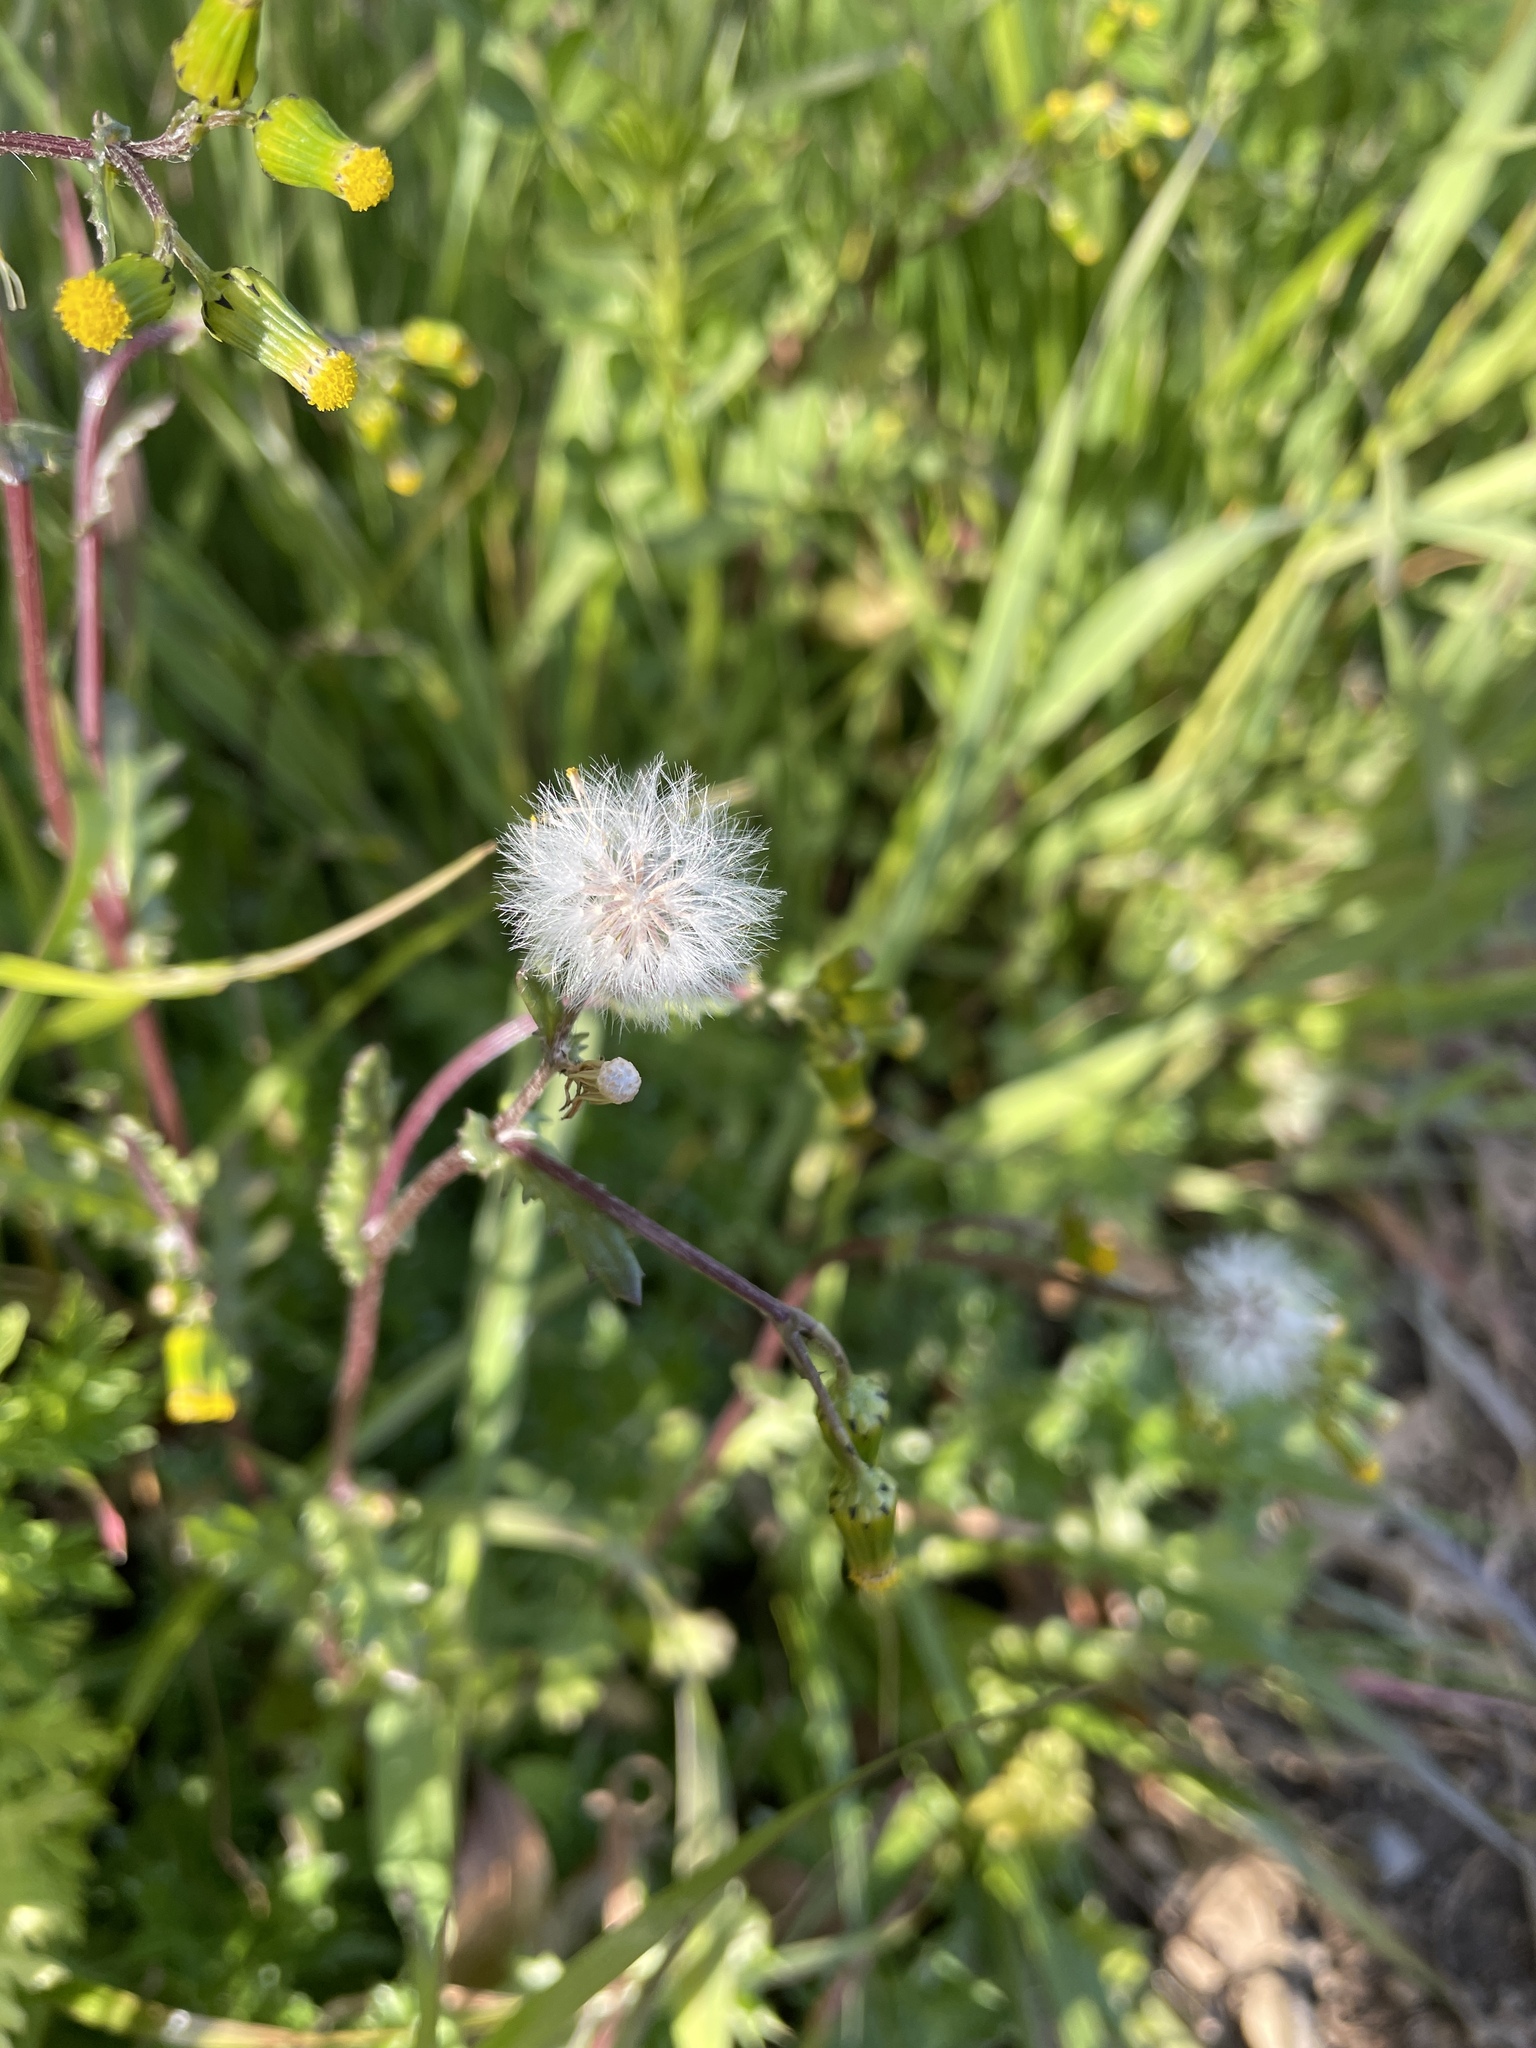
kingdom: Plantae
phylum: Tracheophyta
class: Magnoliopsida
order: Asterales
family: Asteraceae
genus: Senecio
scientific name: Senecio vulgaris
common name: Old-man-in-the-spring
